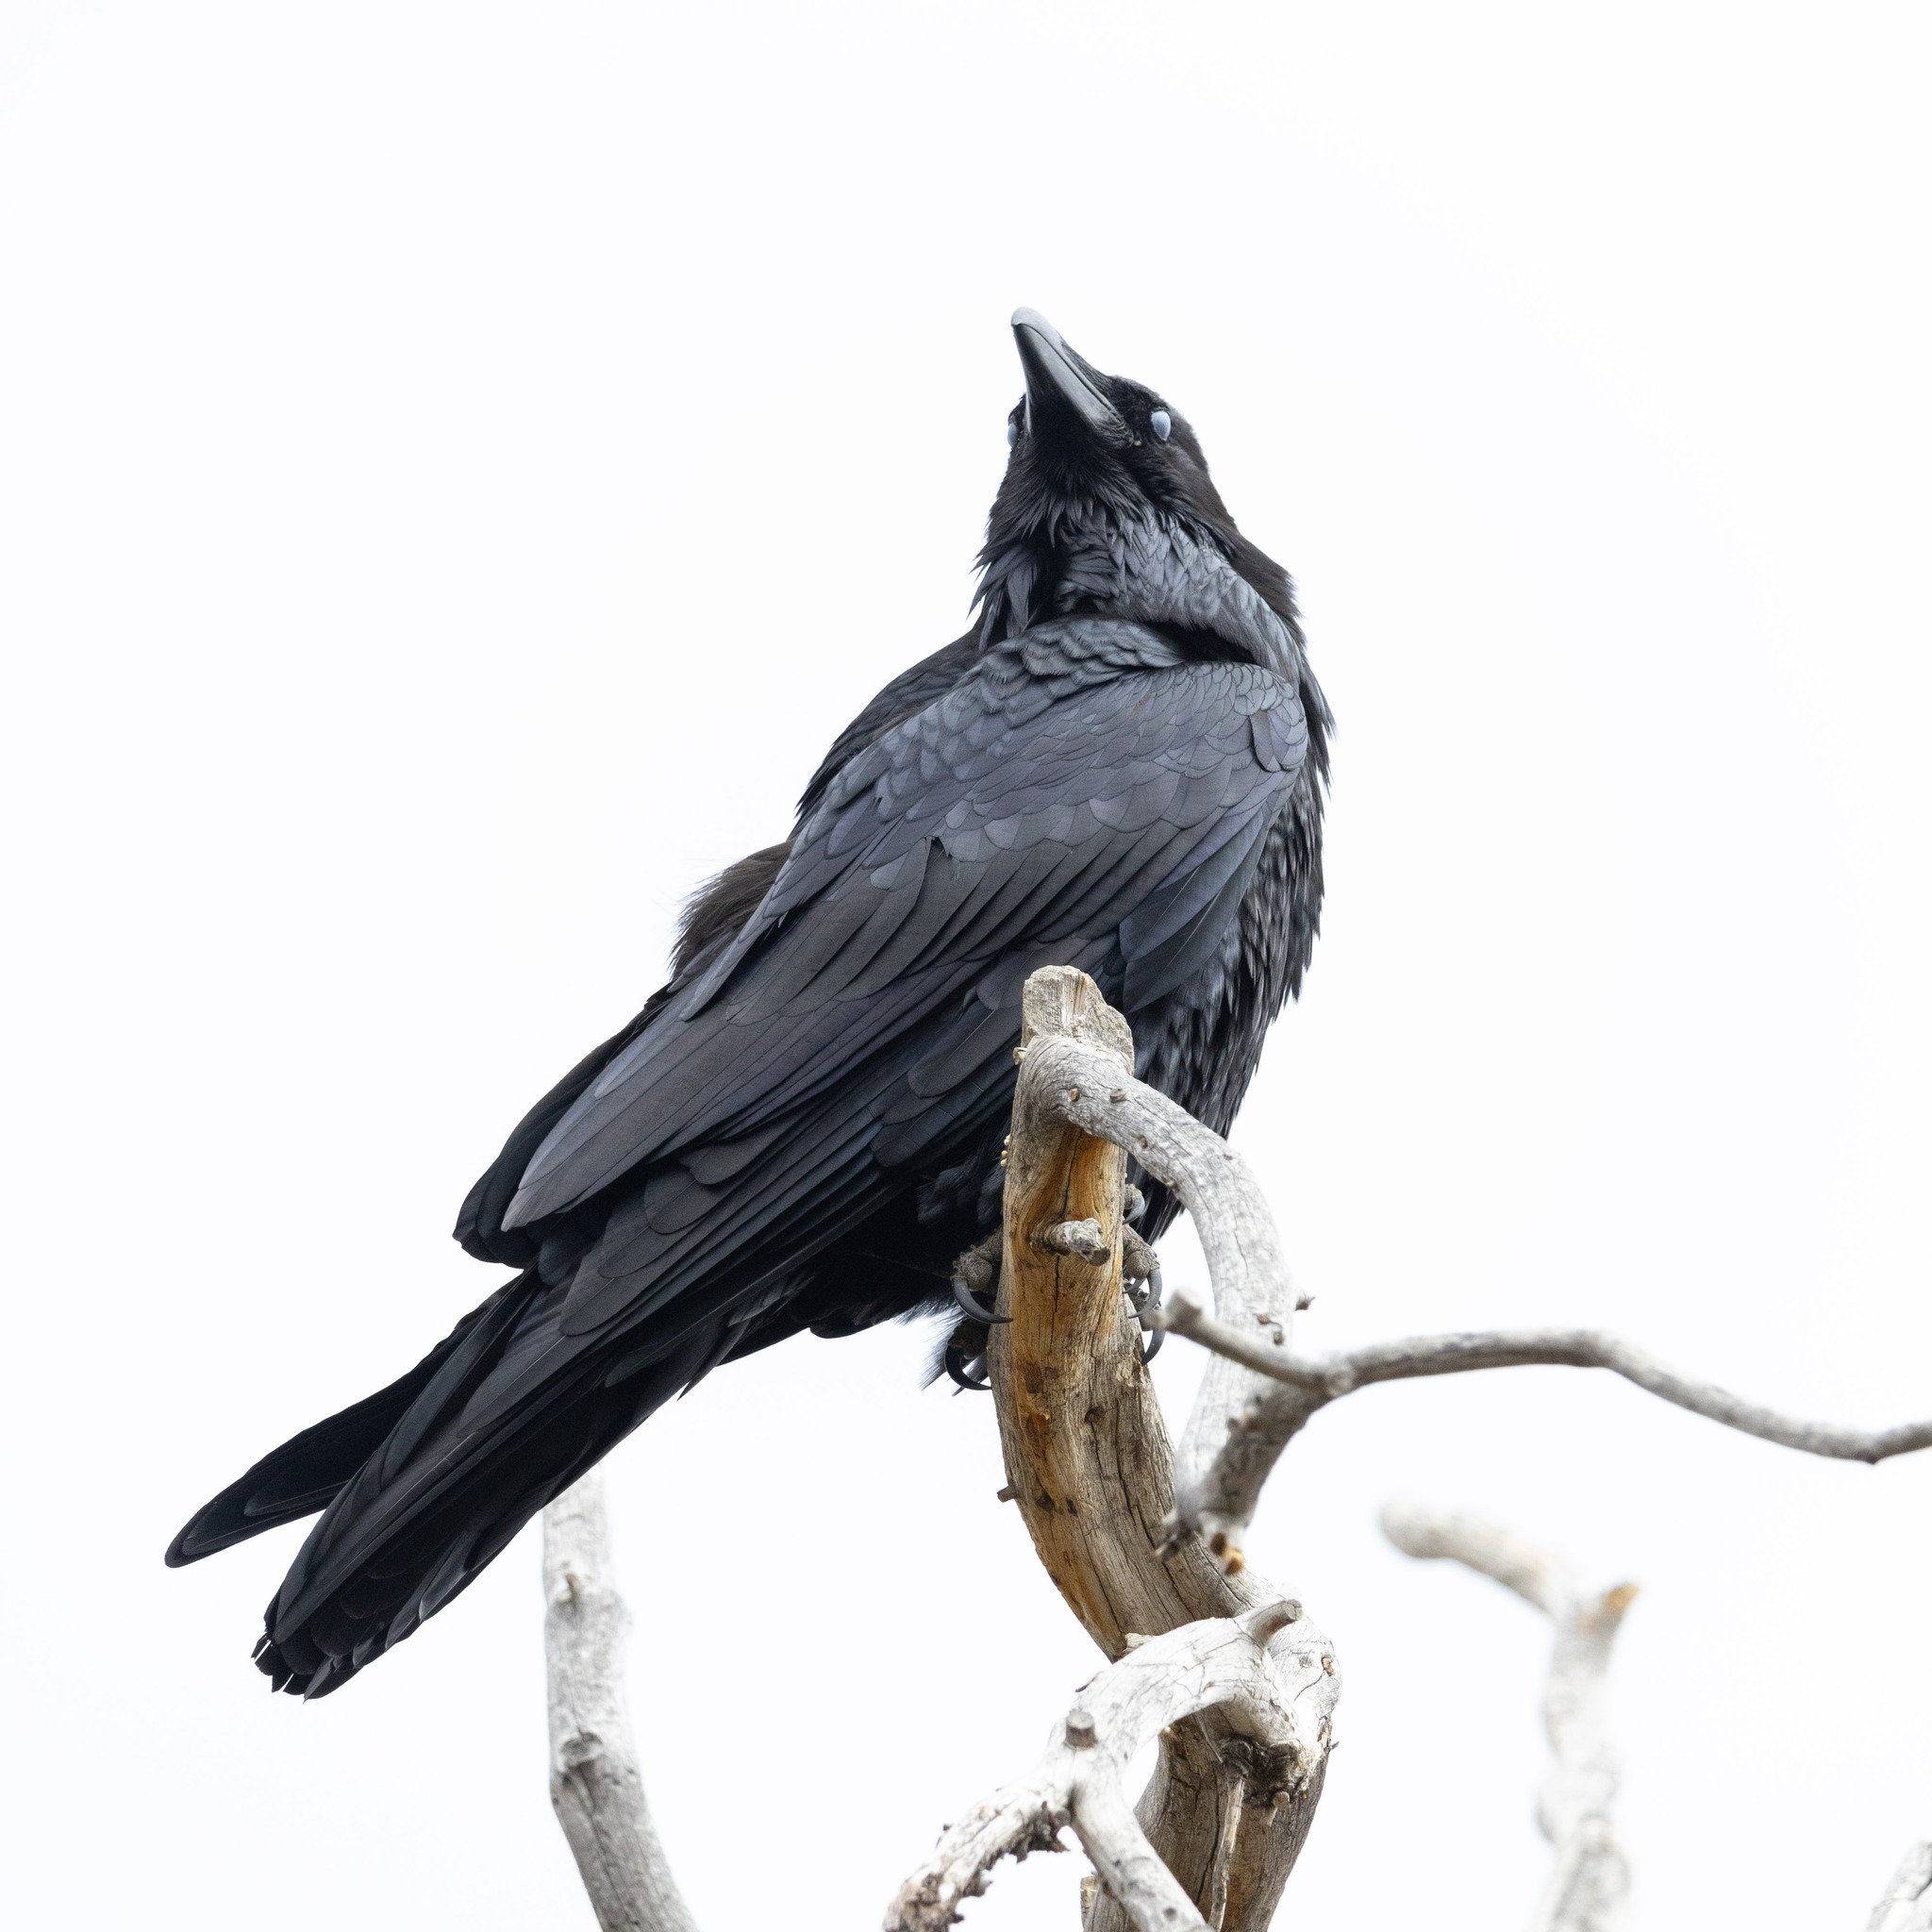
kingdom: Animalia
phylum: Chordata
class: Aves
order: Passeriformes
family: Corvidae
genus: Corvus
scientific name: Corvus corax
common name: Common raven
